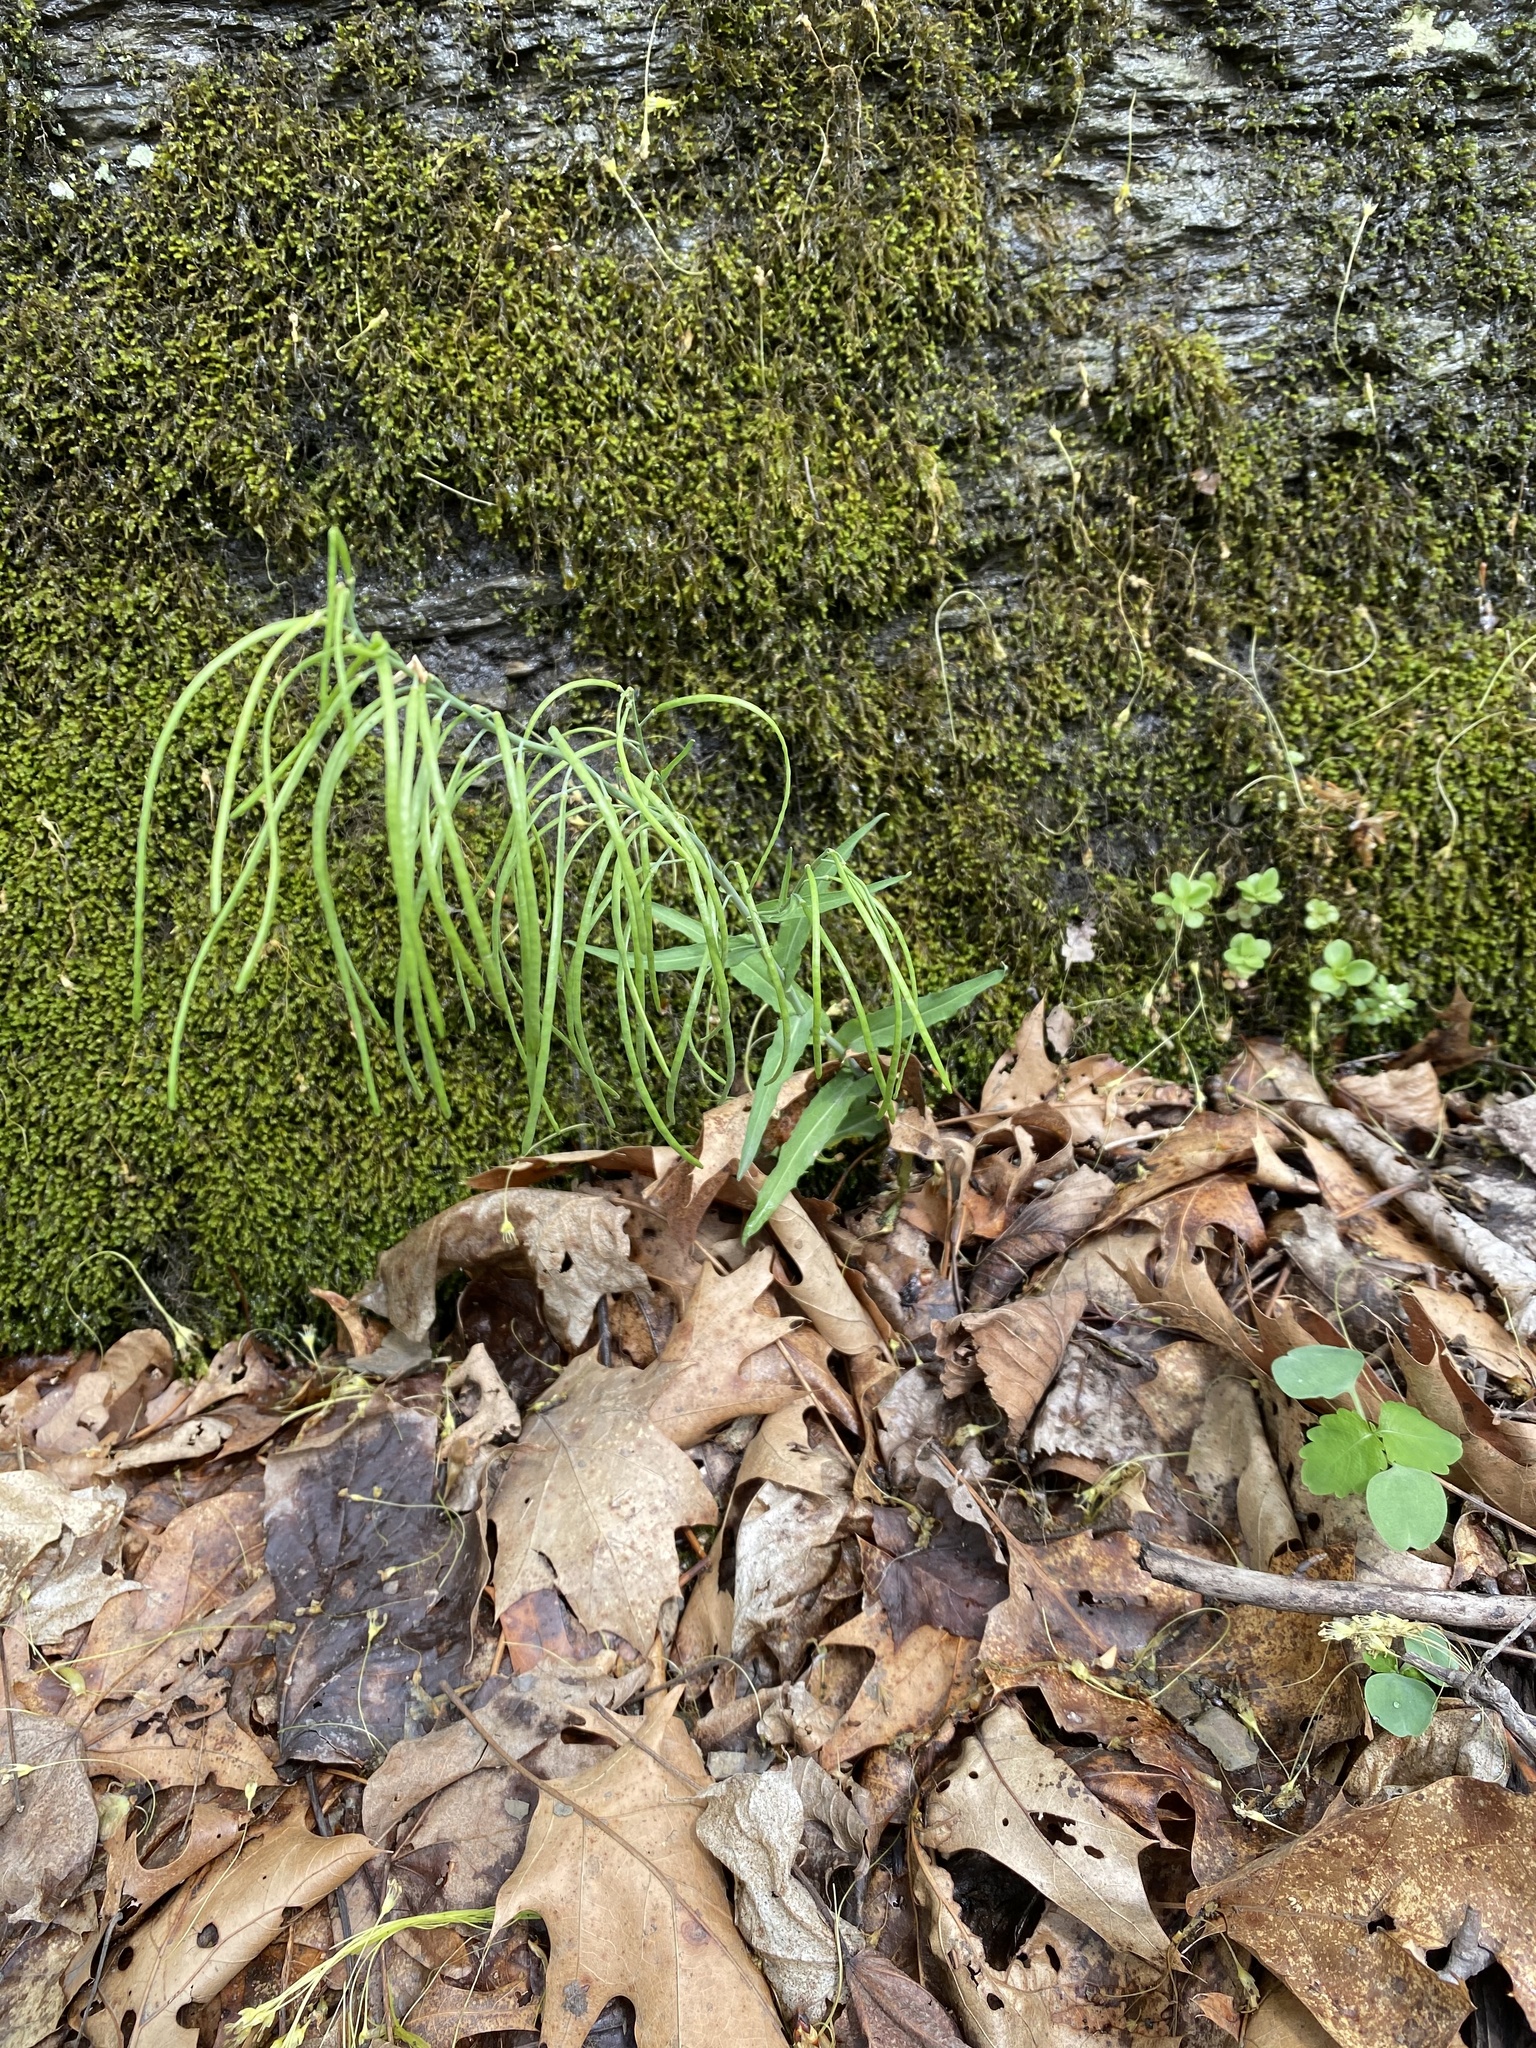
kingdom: Plantae
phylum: Tracheophyta
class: Magnoliopsida
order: Brassicales
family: Brassicaceae
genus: Borodinia
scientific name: Borodinia laevigata
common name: Smooth rockcress
